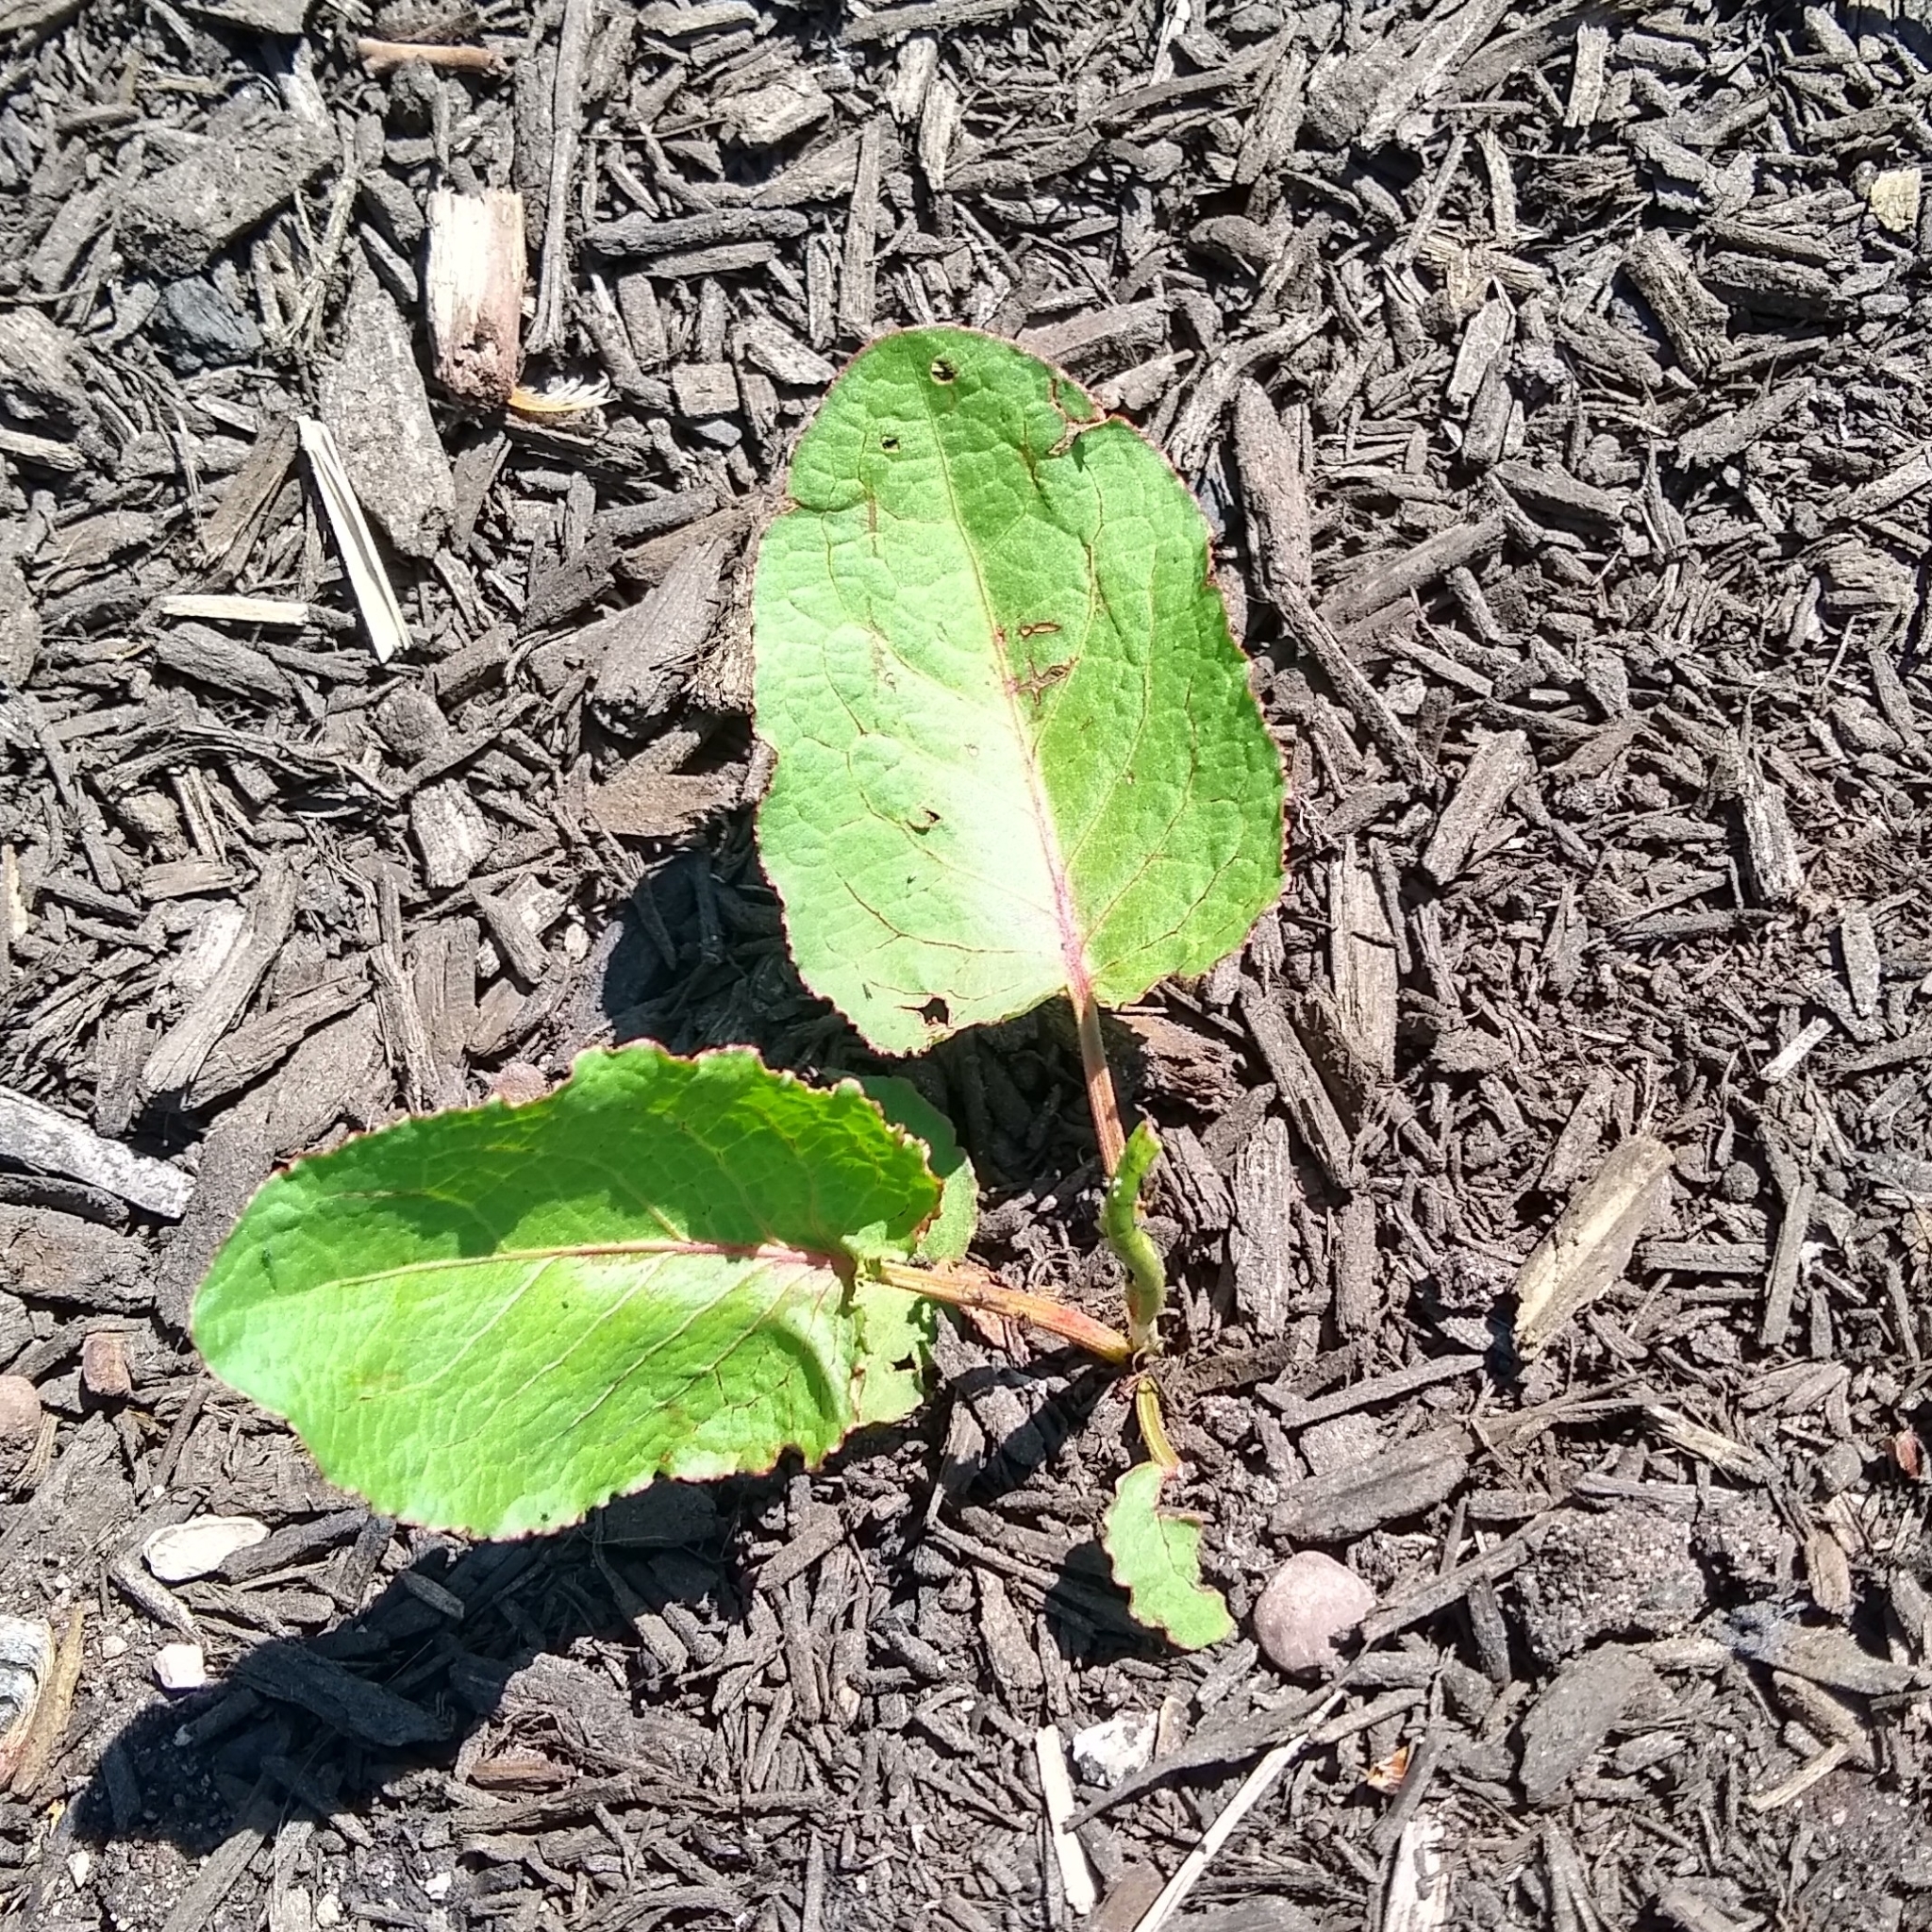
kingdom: Plantae
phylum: Tracheophyta
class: Magnoliopsida
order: Caryophyllales
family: Polygonaceae
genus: Rumex
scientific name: Rumex obtusifolius
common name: Bitter dock
